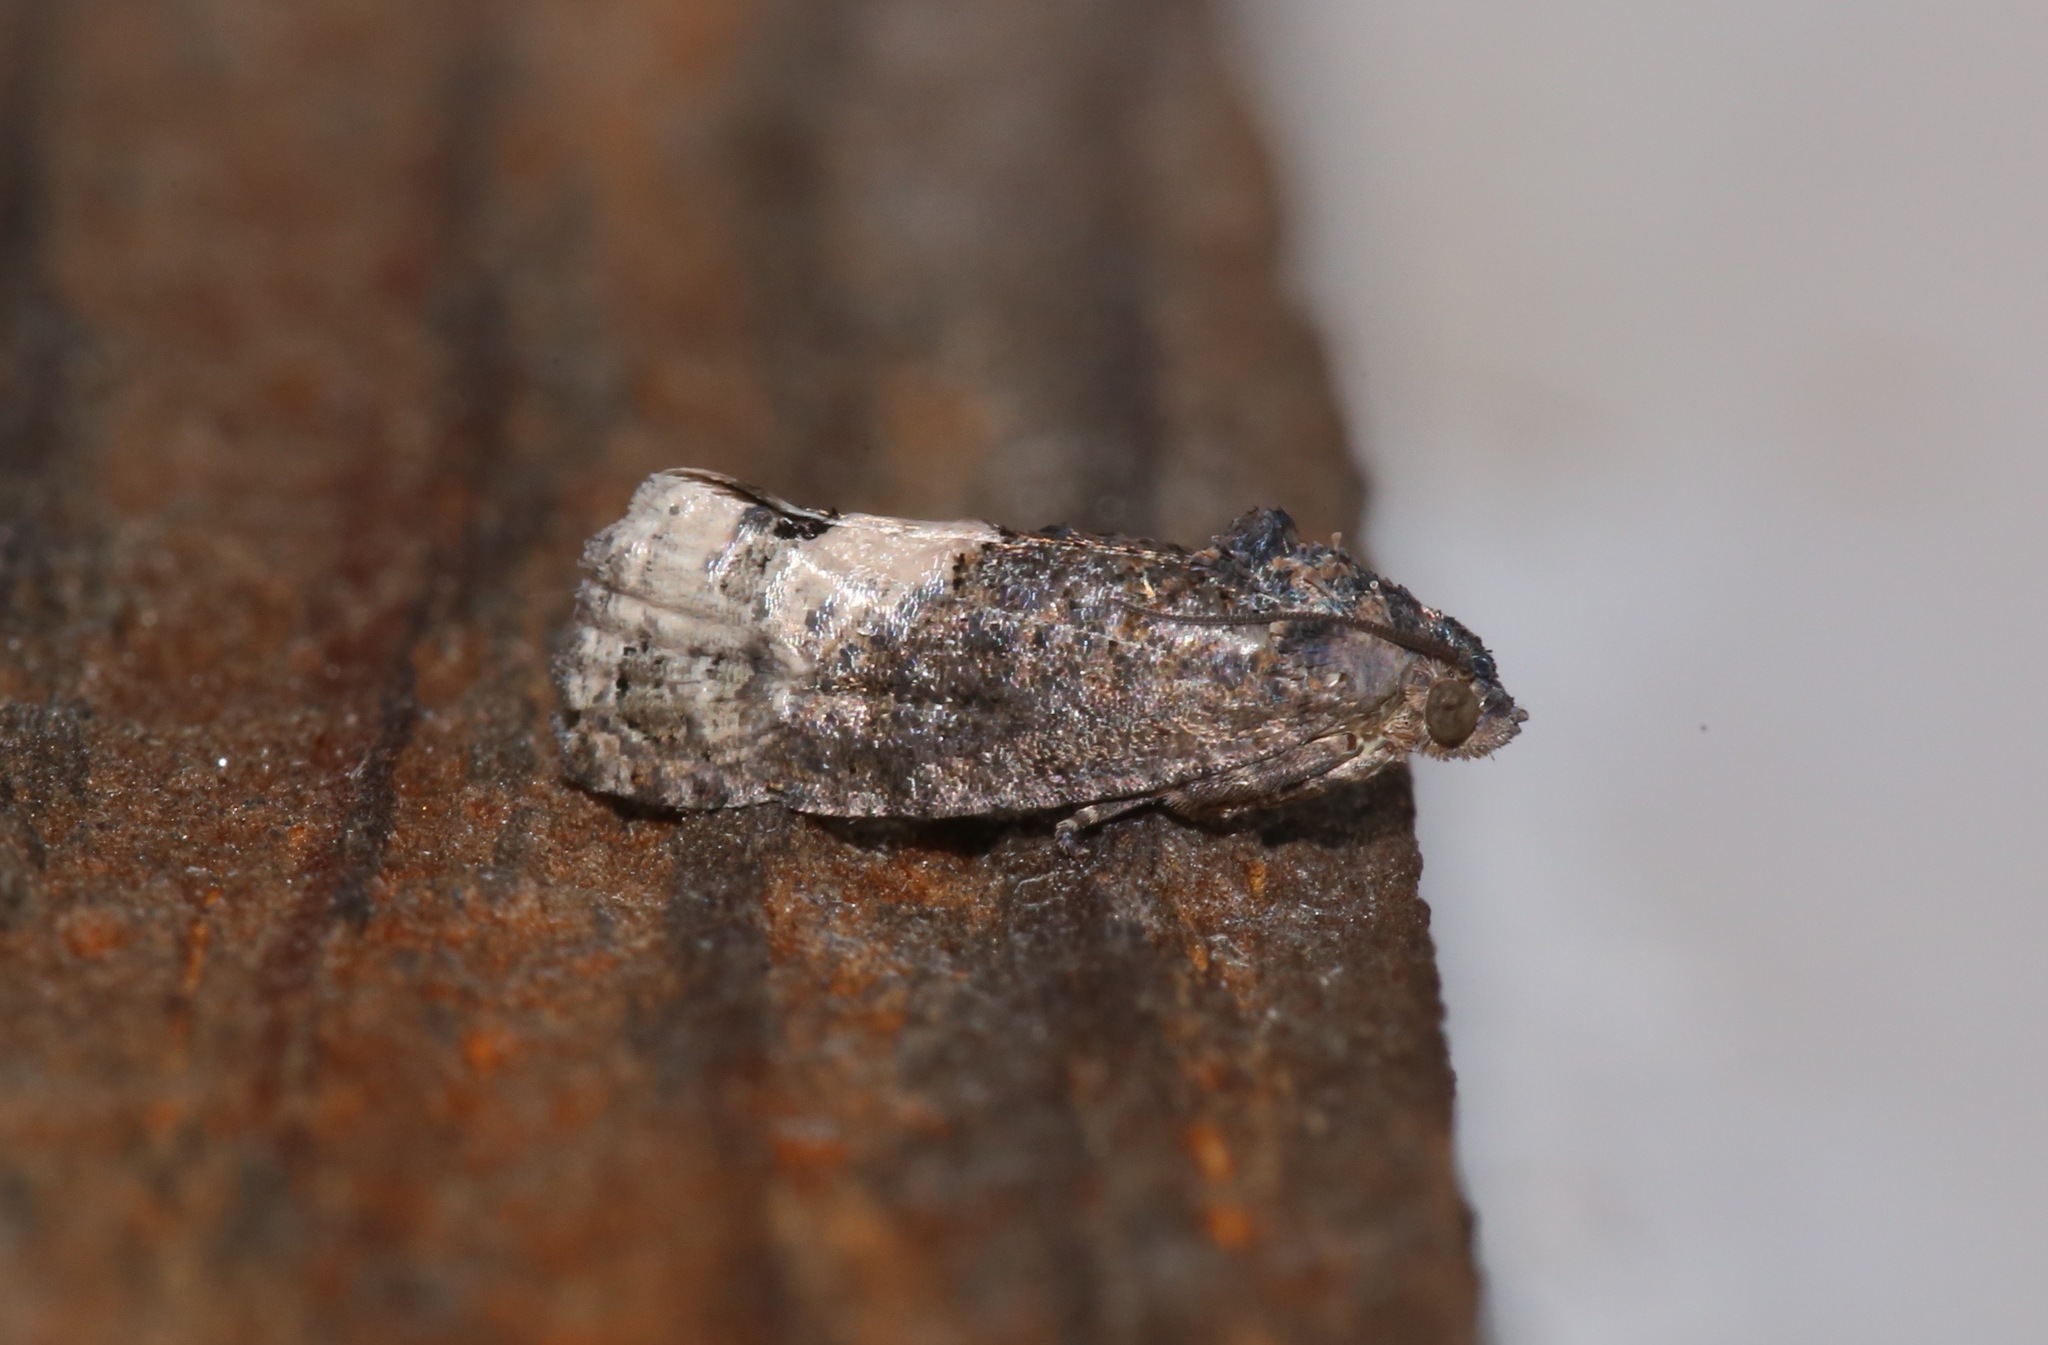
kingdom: Animalia
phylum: Arthropoda
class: Insecta
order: Lepidoptera
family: Tortricidae
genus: Ecdytolopha
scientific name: Ecdytolopha insiticiana
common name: Locust twig borer moth
